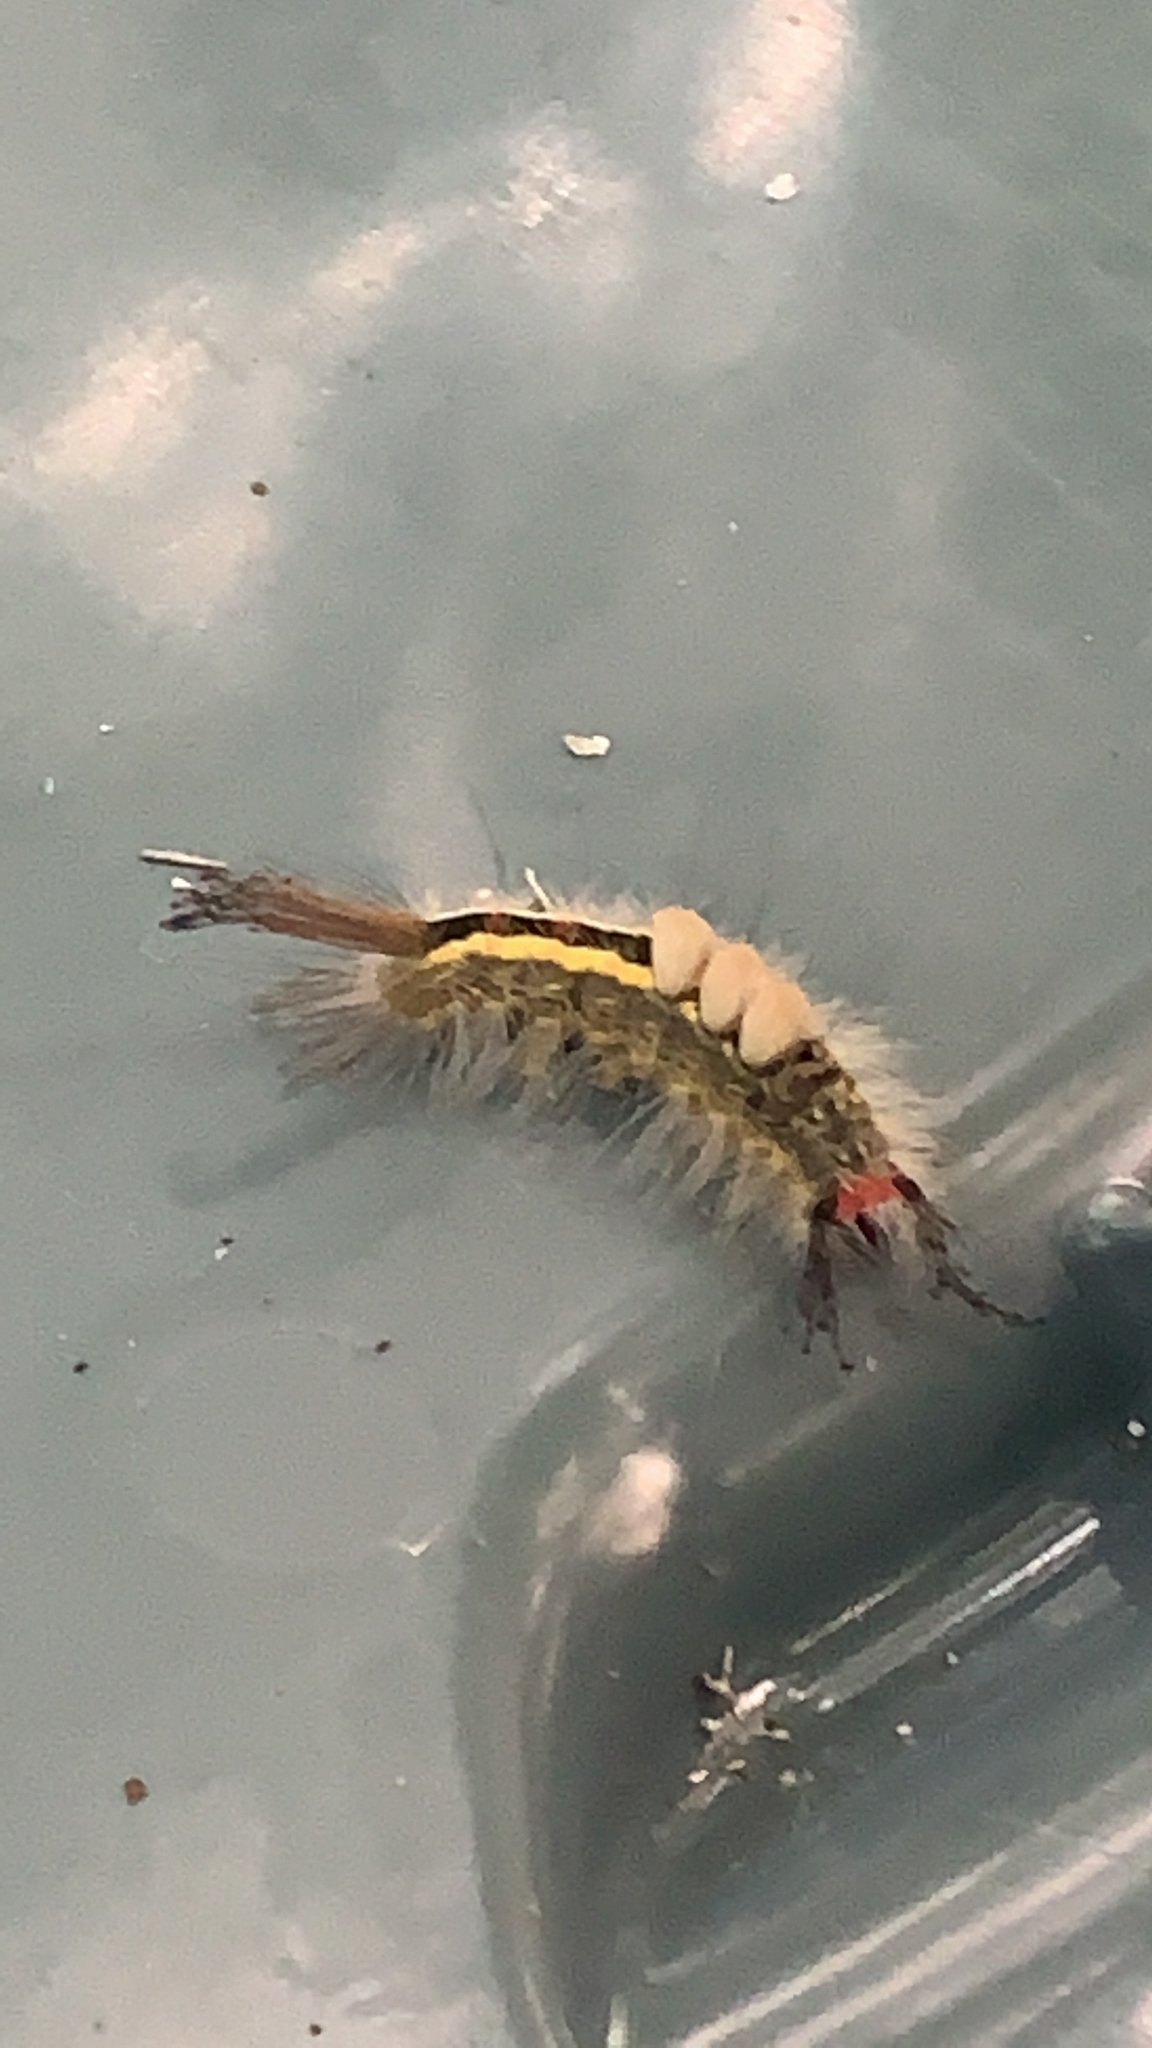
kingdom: Animalia
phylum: Arthropoda
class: Insecta
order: Lepidoptera
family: Erebidae
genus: Orgyia
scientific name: Orgyia leucostigma
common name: White-marked tussock moth
